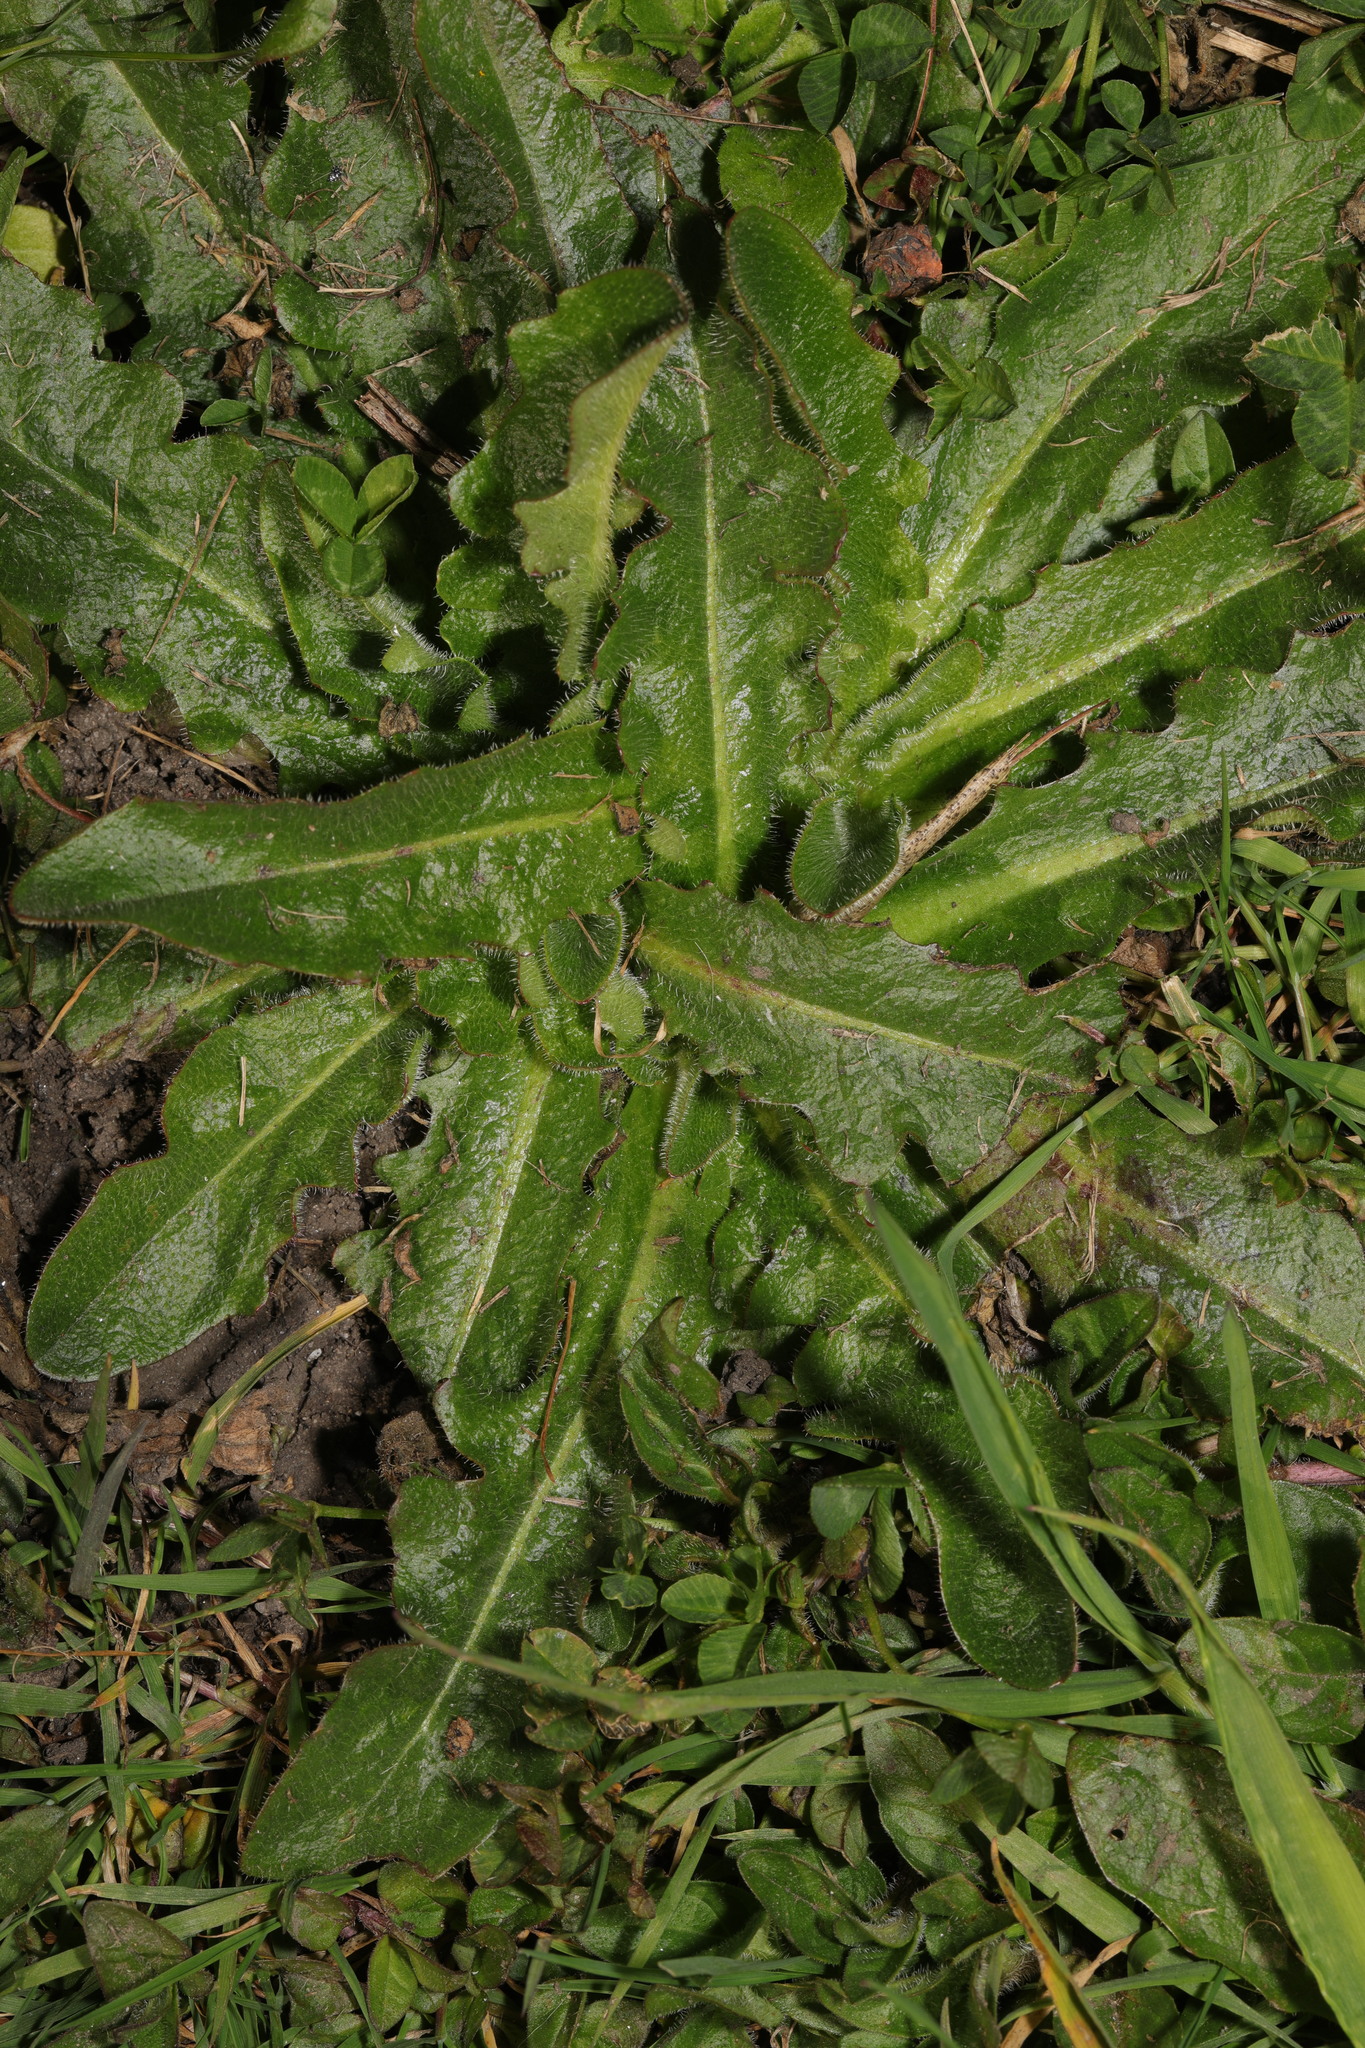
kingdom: Plantae
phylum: Tracheophyta
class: Magnoliopsida
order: Asterales
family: Asteraceae
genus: Hypochaeris
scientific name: Hypochaeris radicata
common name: Flatweed
